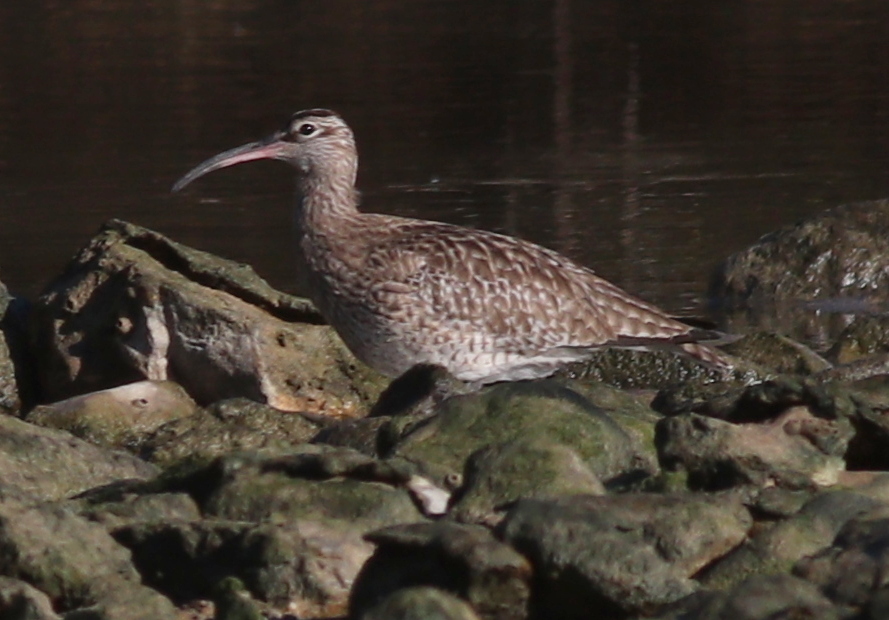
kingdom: Animalia
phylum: Chordata
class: Aves
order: Charadriiformes
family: Scolopacidae
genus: Numenius
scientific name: Numenius phaeopus
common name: Whimbrel
